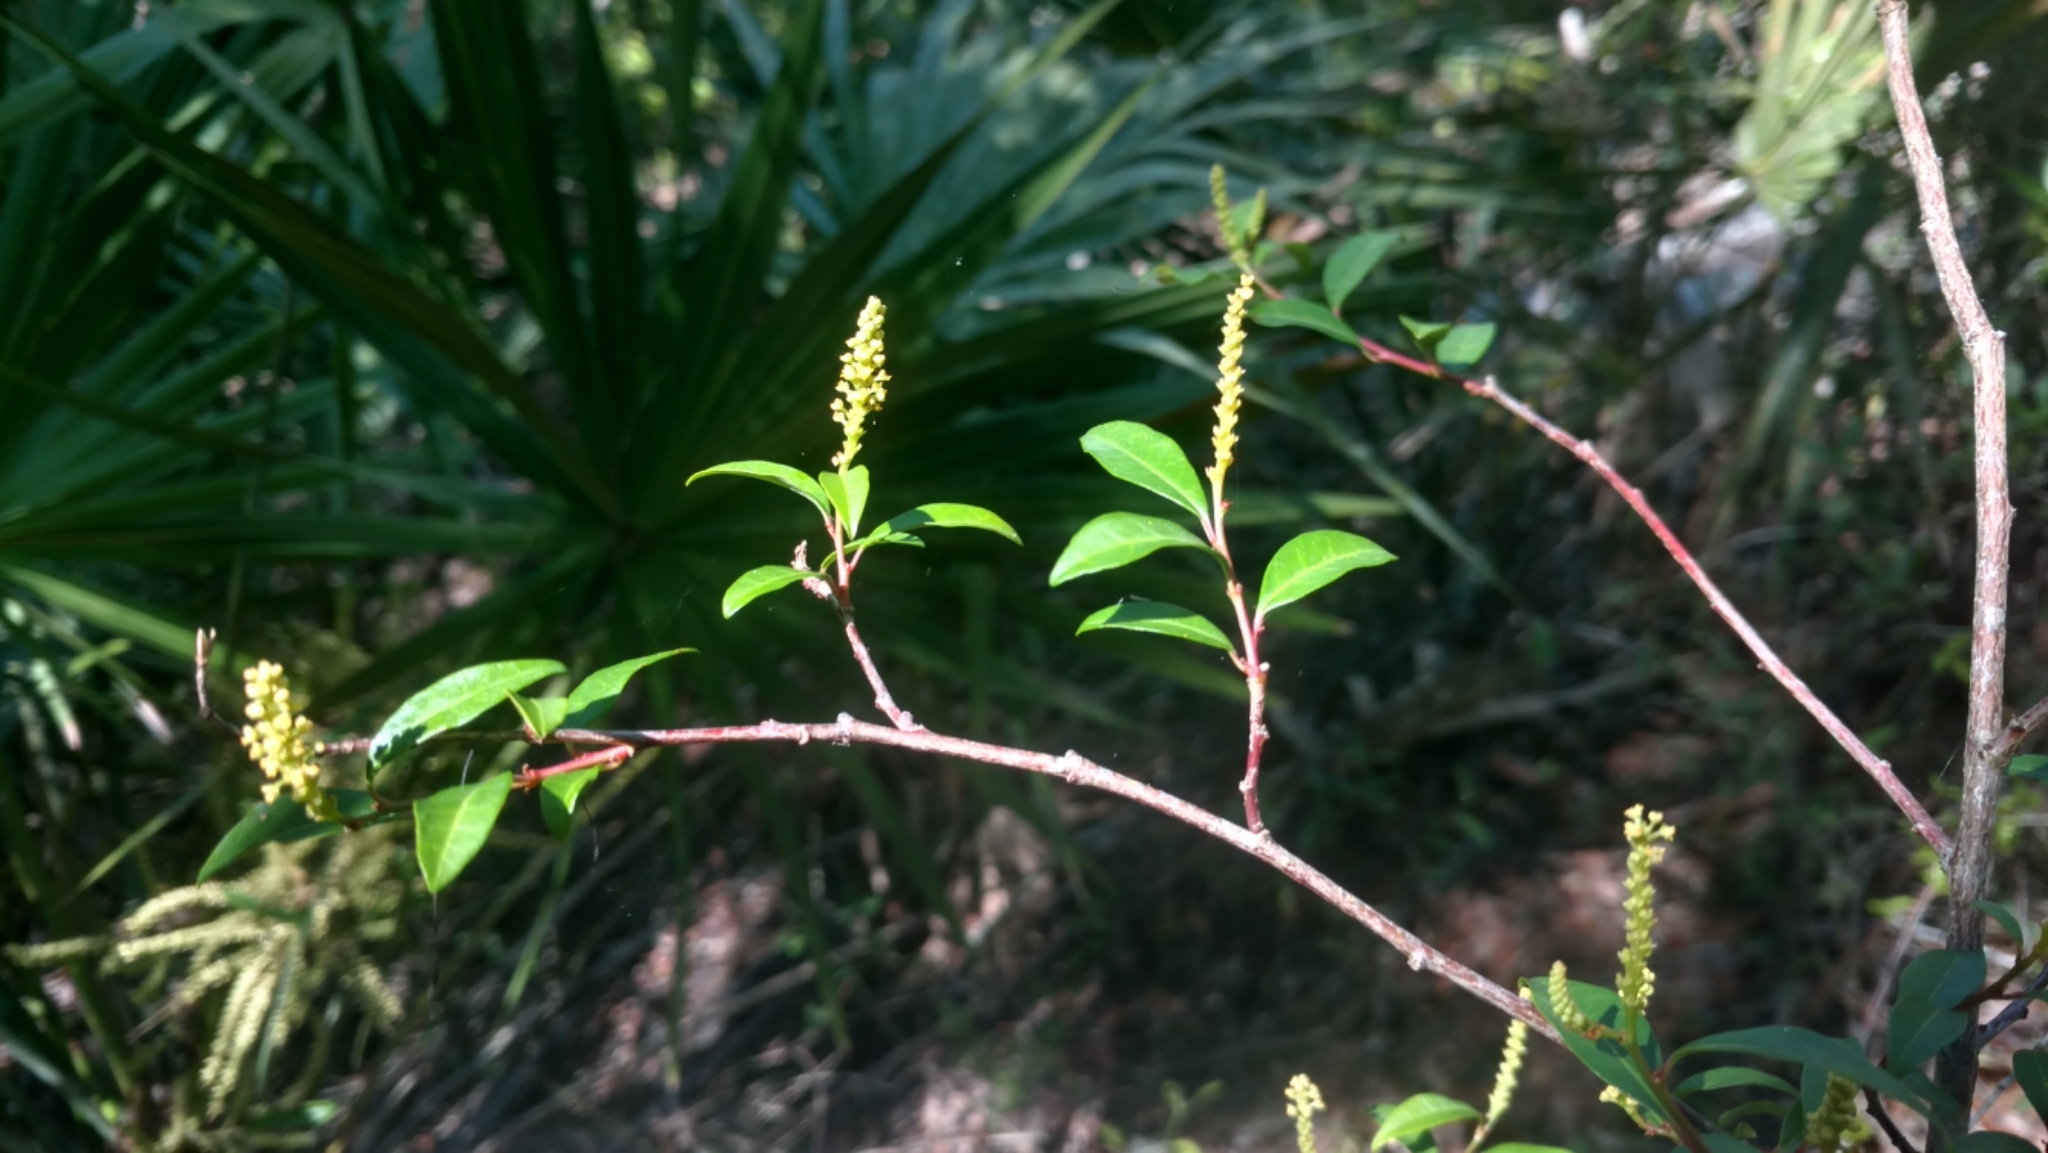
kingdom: Plantae
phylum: Tracheophyta
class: Magnoliopsida
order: Malpighiales
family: Euphorbiaceae
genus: Ditrysinia
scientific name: Ditrysinia fruticosa
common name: Gulf sebastian-bush
